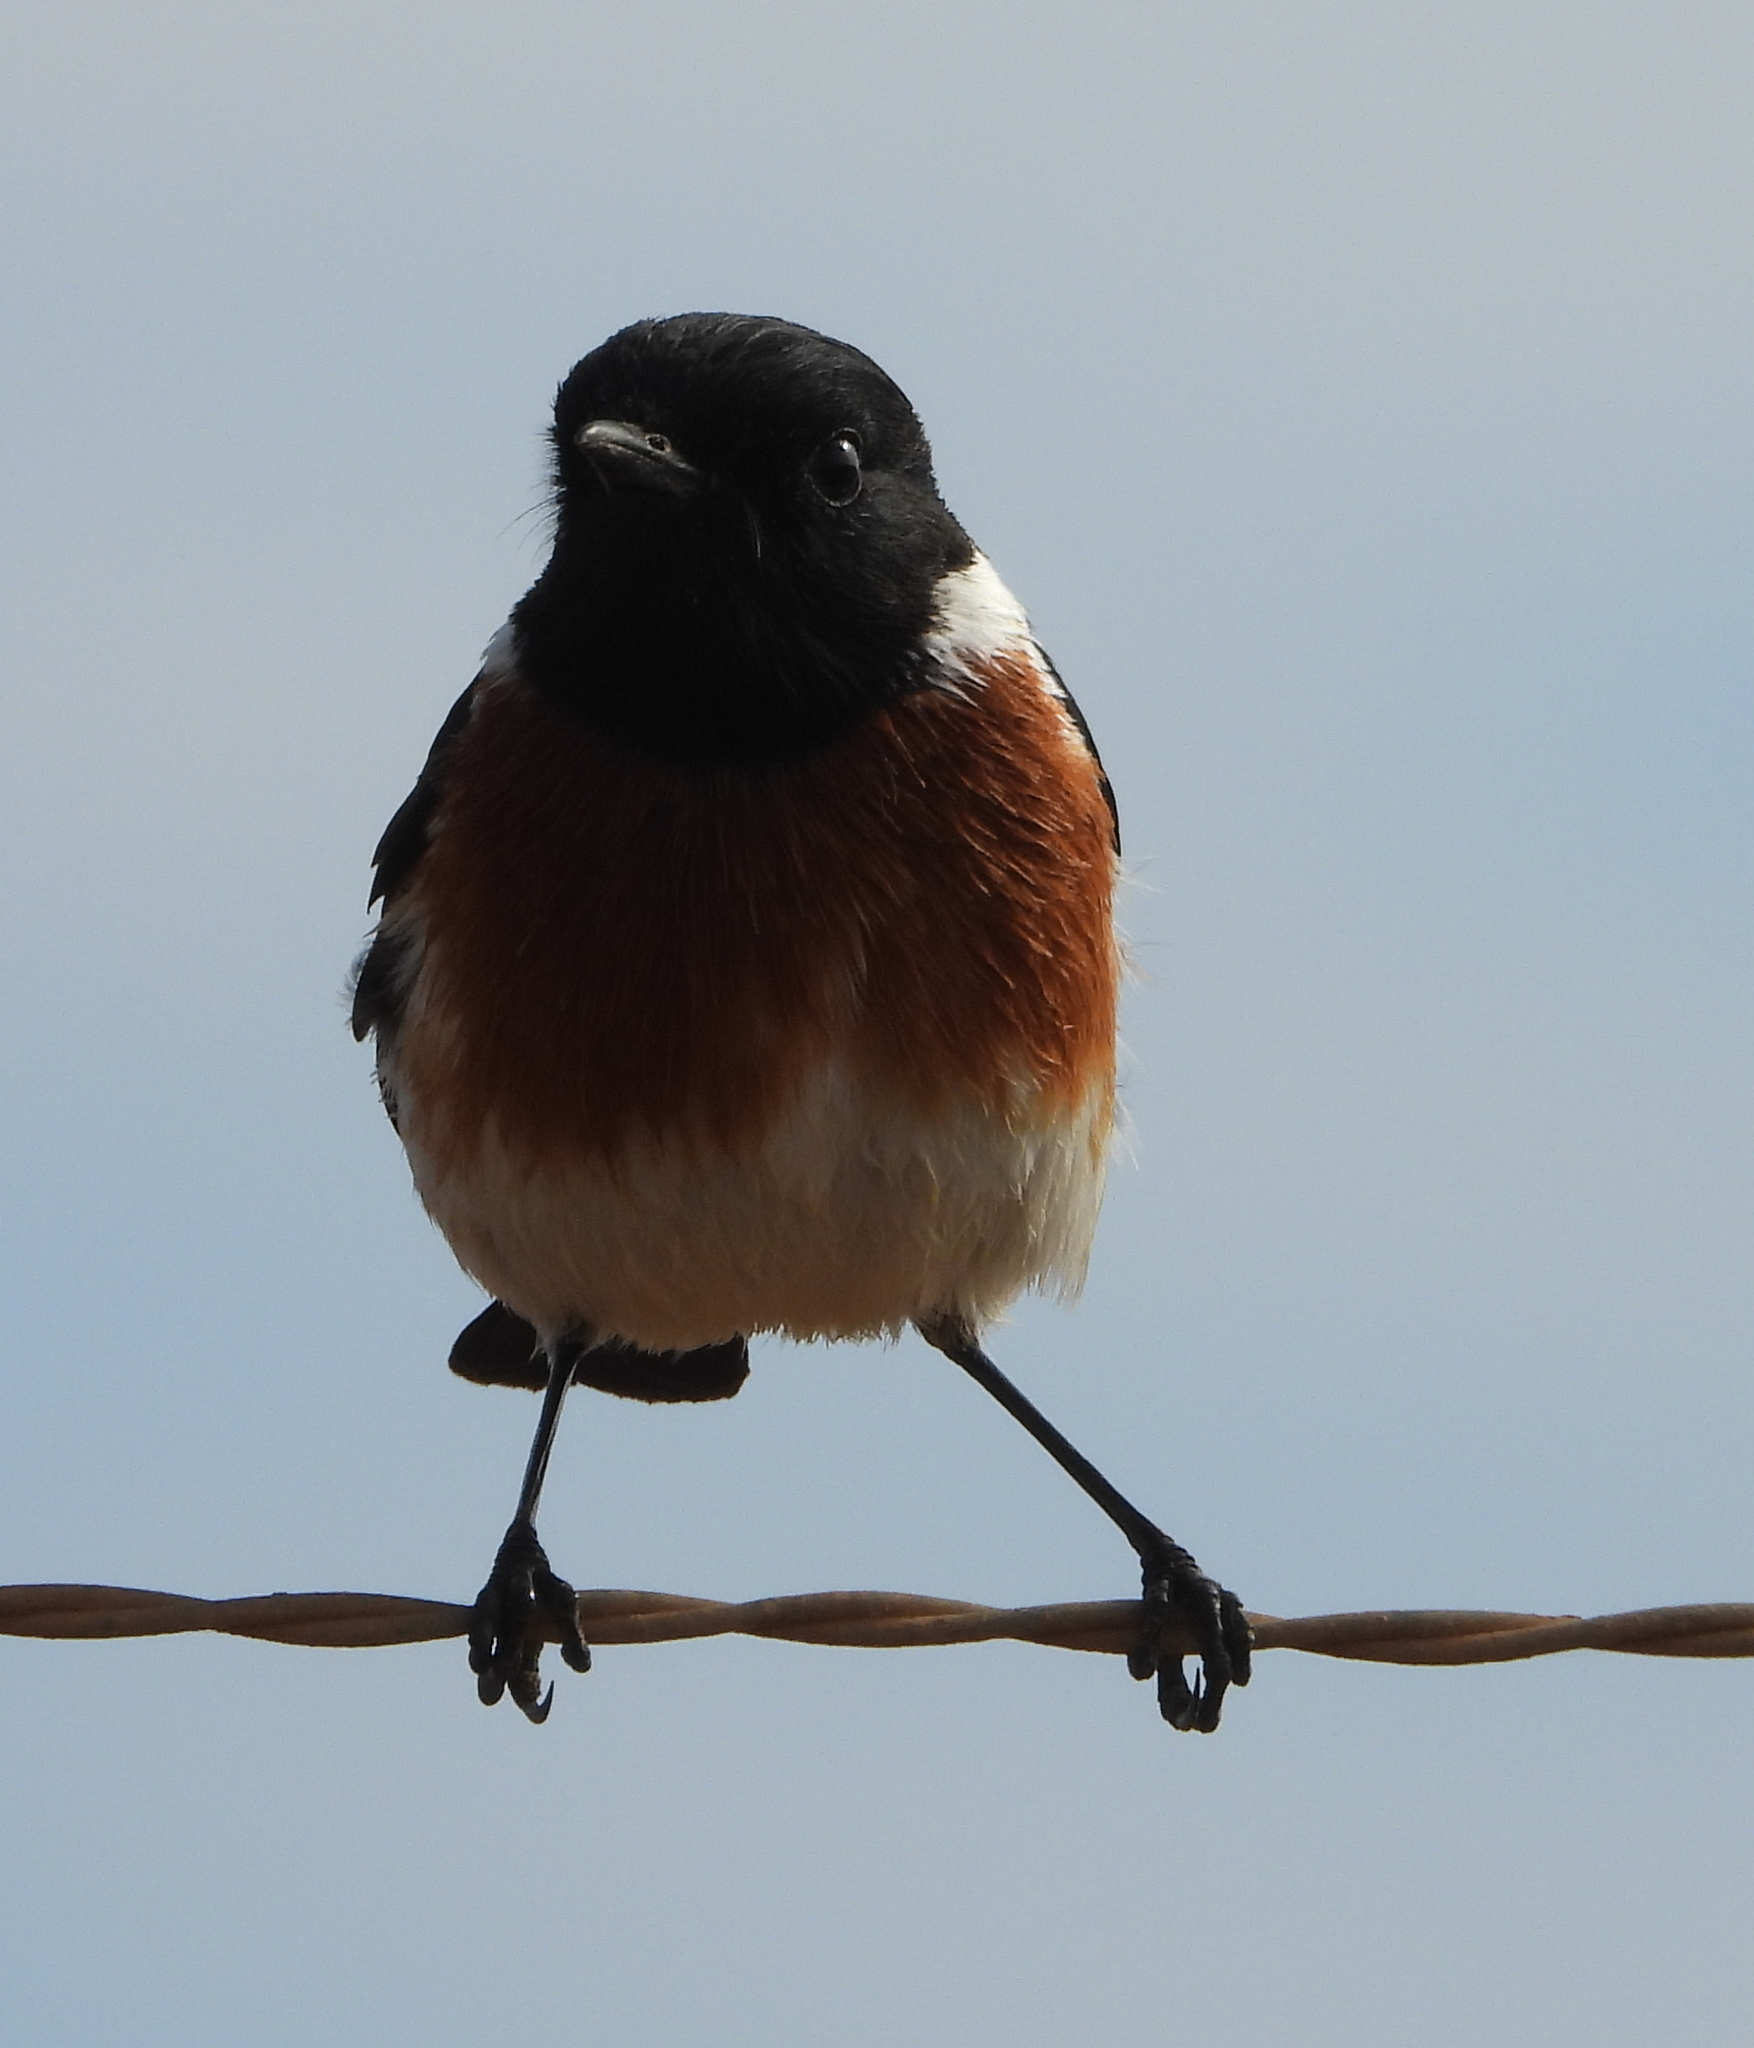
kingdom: Animalia
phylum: Chordata
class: Aves
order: Passeriformes
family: Muscicapidae
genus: Saxicola
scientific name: Saxicola torquatus
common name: African stonechat
